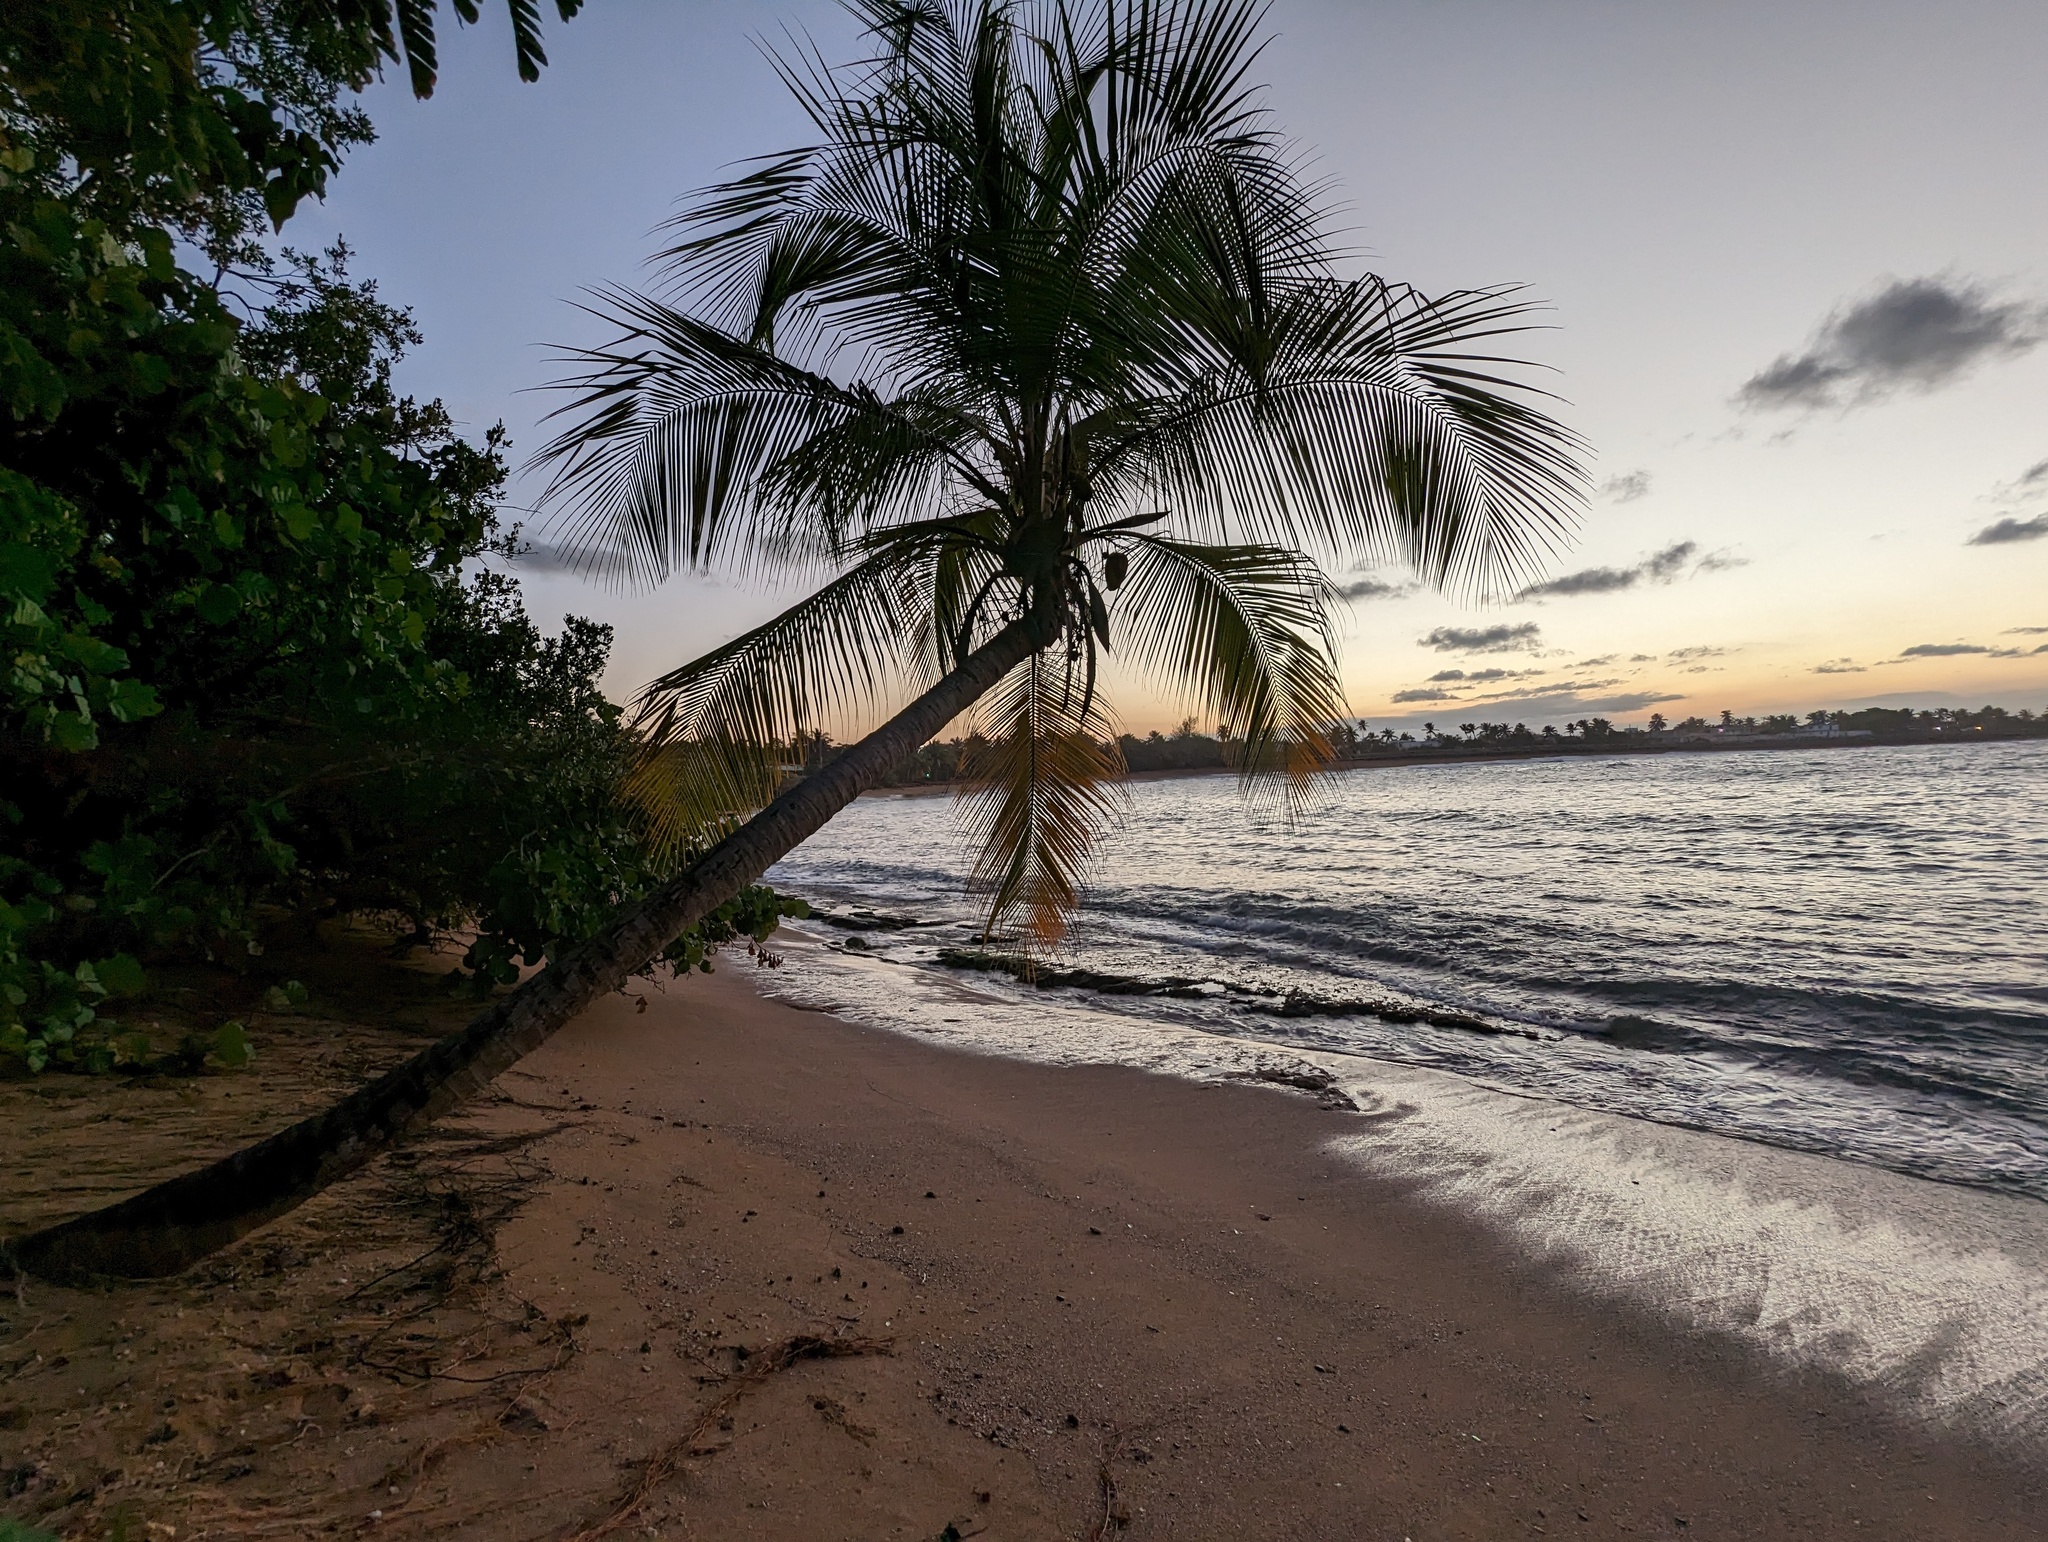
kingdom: Plantae
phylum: Tracheophyta
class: Liliopsida
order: Arecales
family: Arecaceae
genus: Cocos
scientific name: Cocos nucifera
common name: Coconut palm
